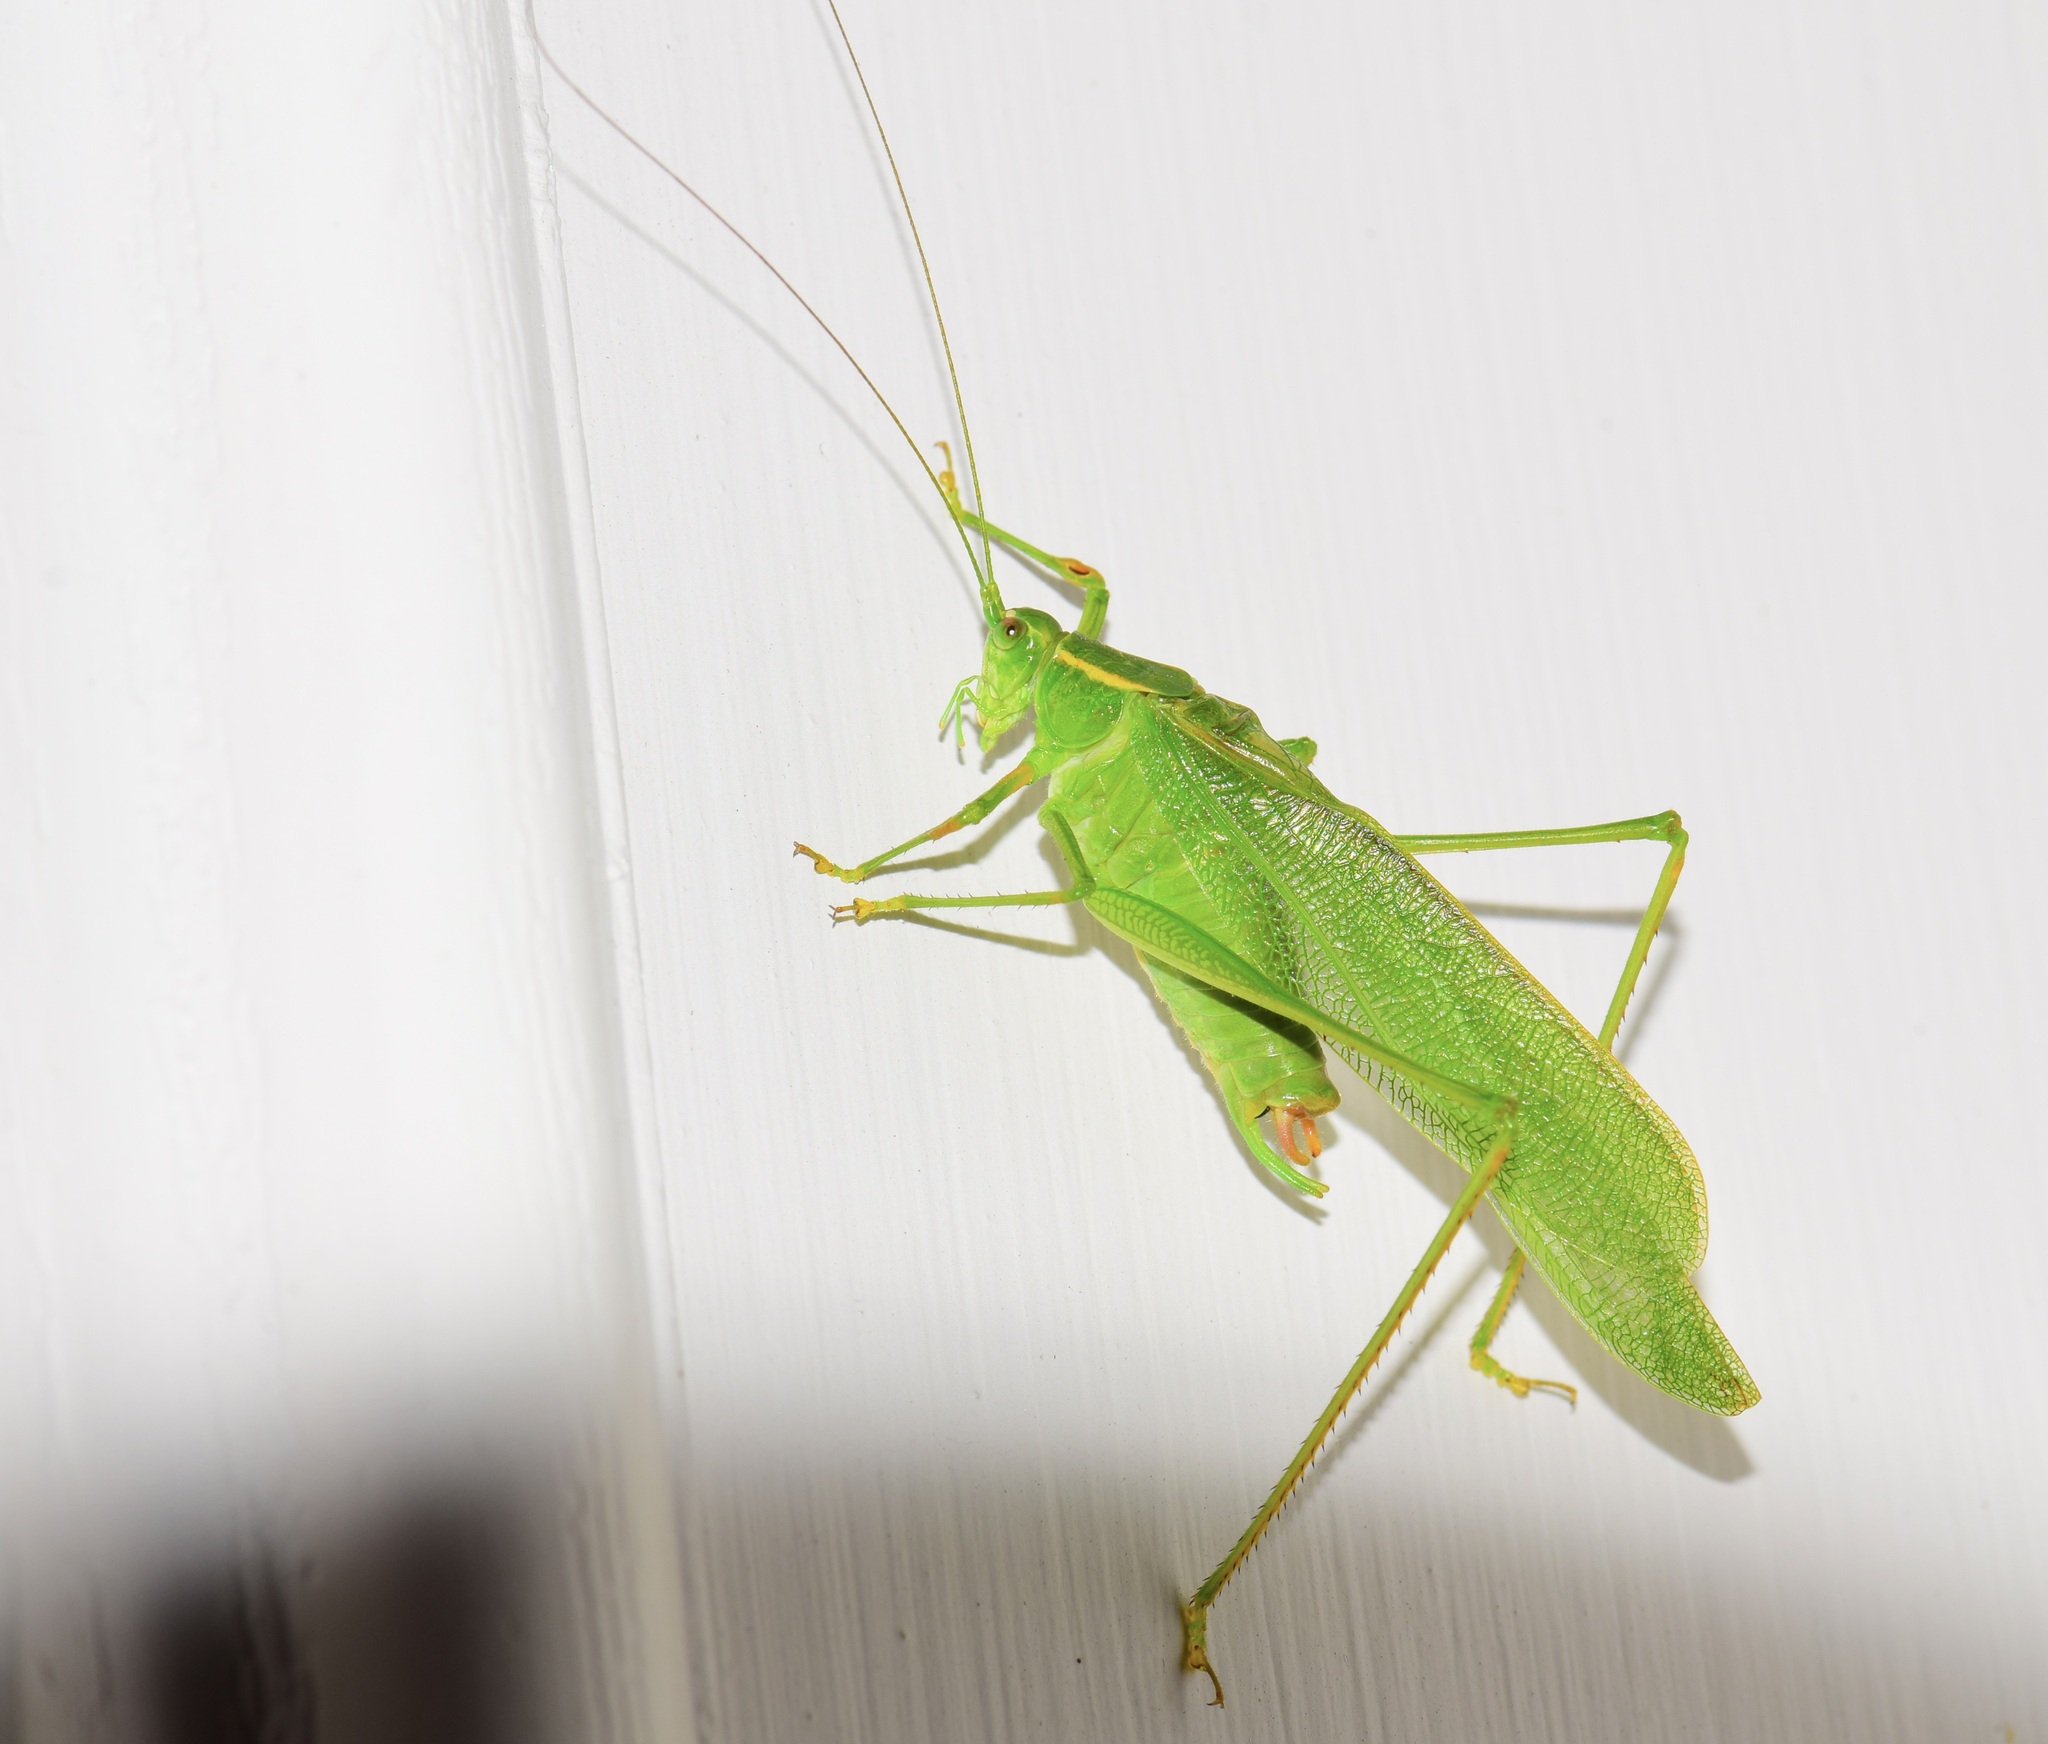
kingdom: Animalia
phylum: Arthropoda
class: Insecta
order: Orthoptera
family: Tettigoniidae
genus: Scudderia
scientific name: Scudderia septentrionalis
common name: Northern bush-katydid
